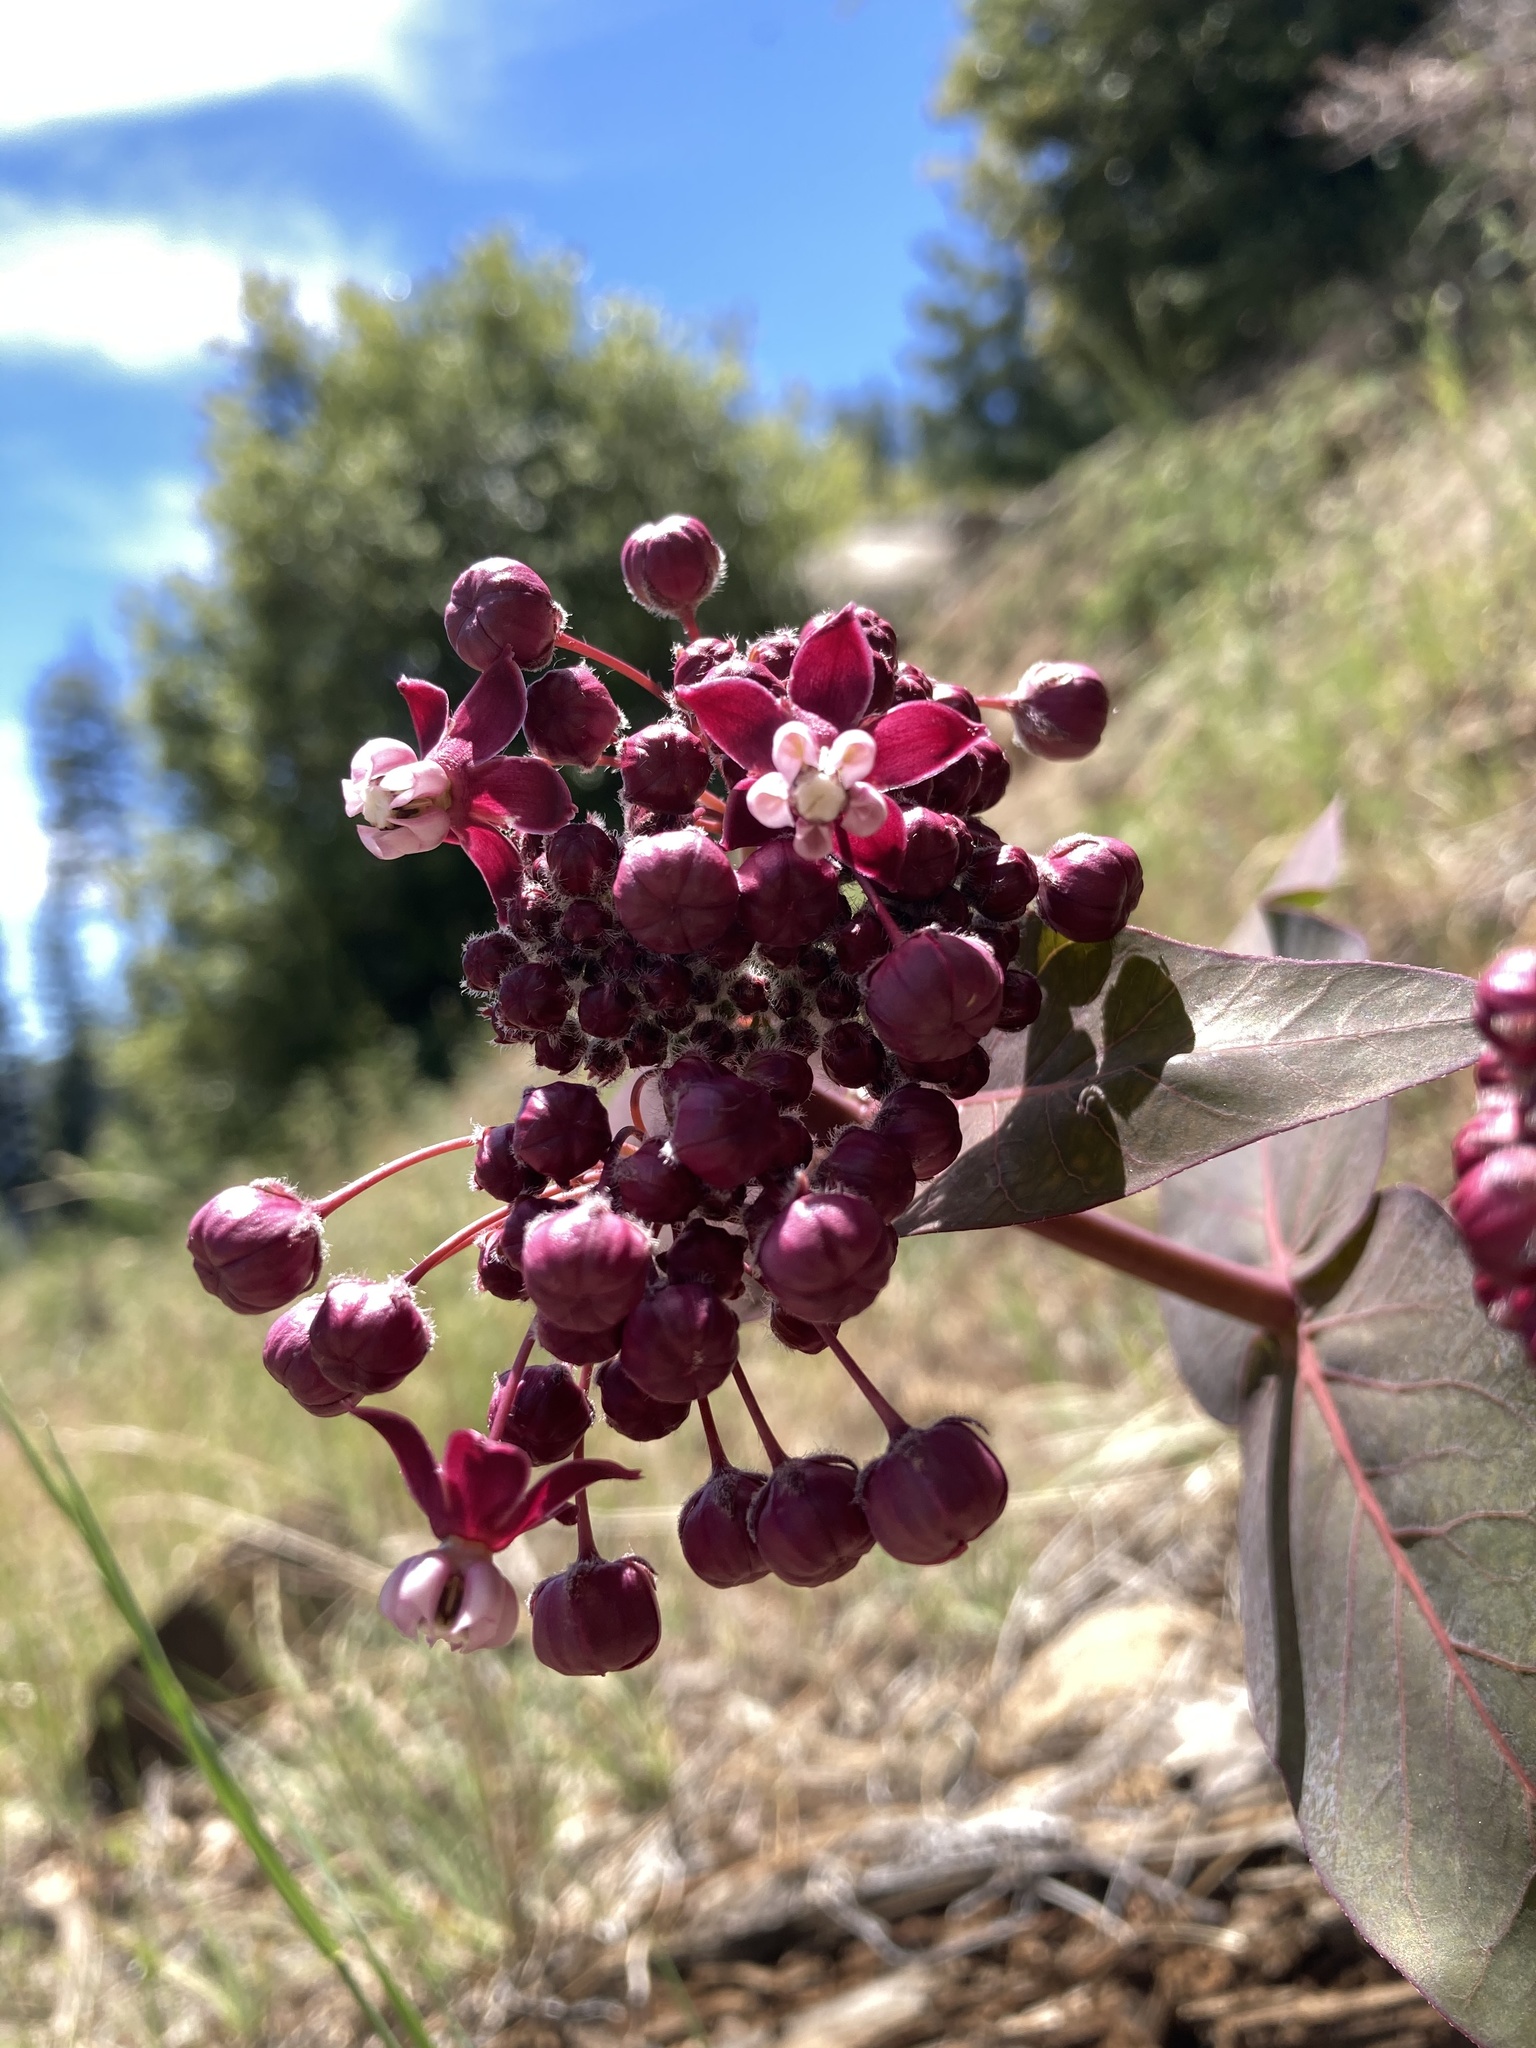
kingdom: Plantae
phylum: Tracheophyta
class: Magnoliopsida
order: Gentianales
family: Apocynaceae
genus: Asclepias
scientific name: Asclepias cordifolia
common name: Purple milkweed
